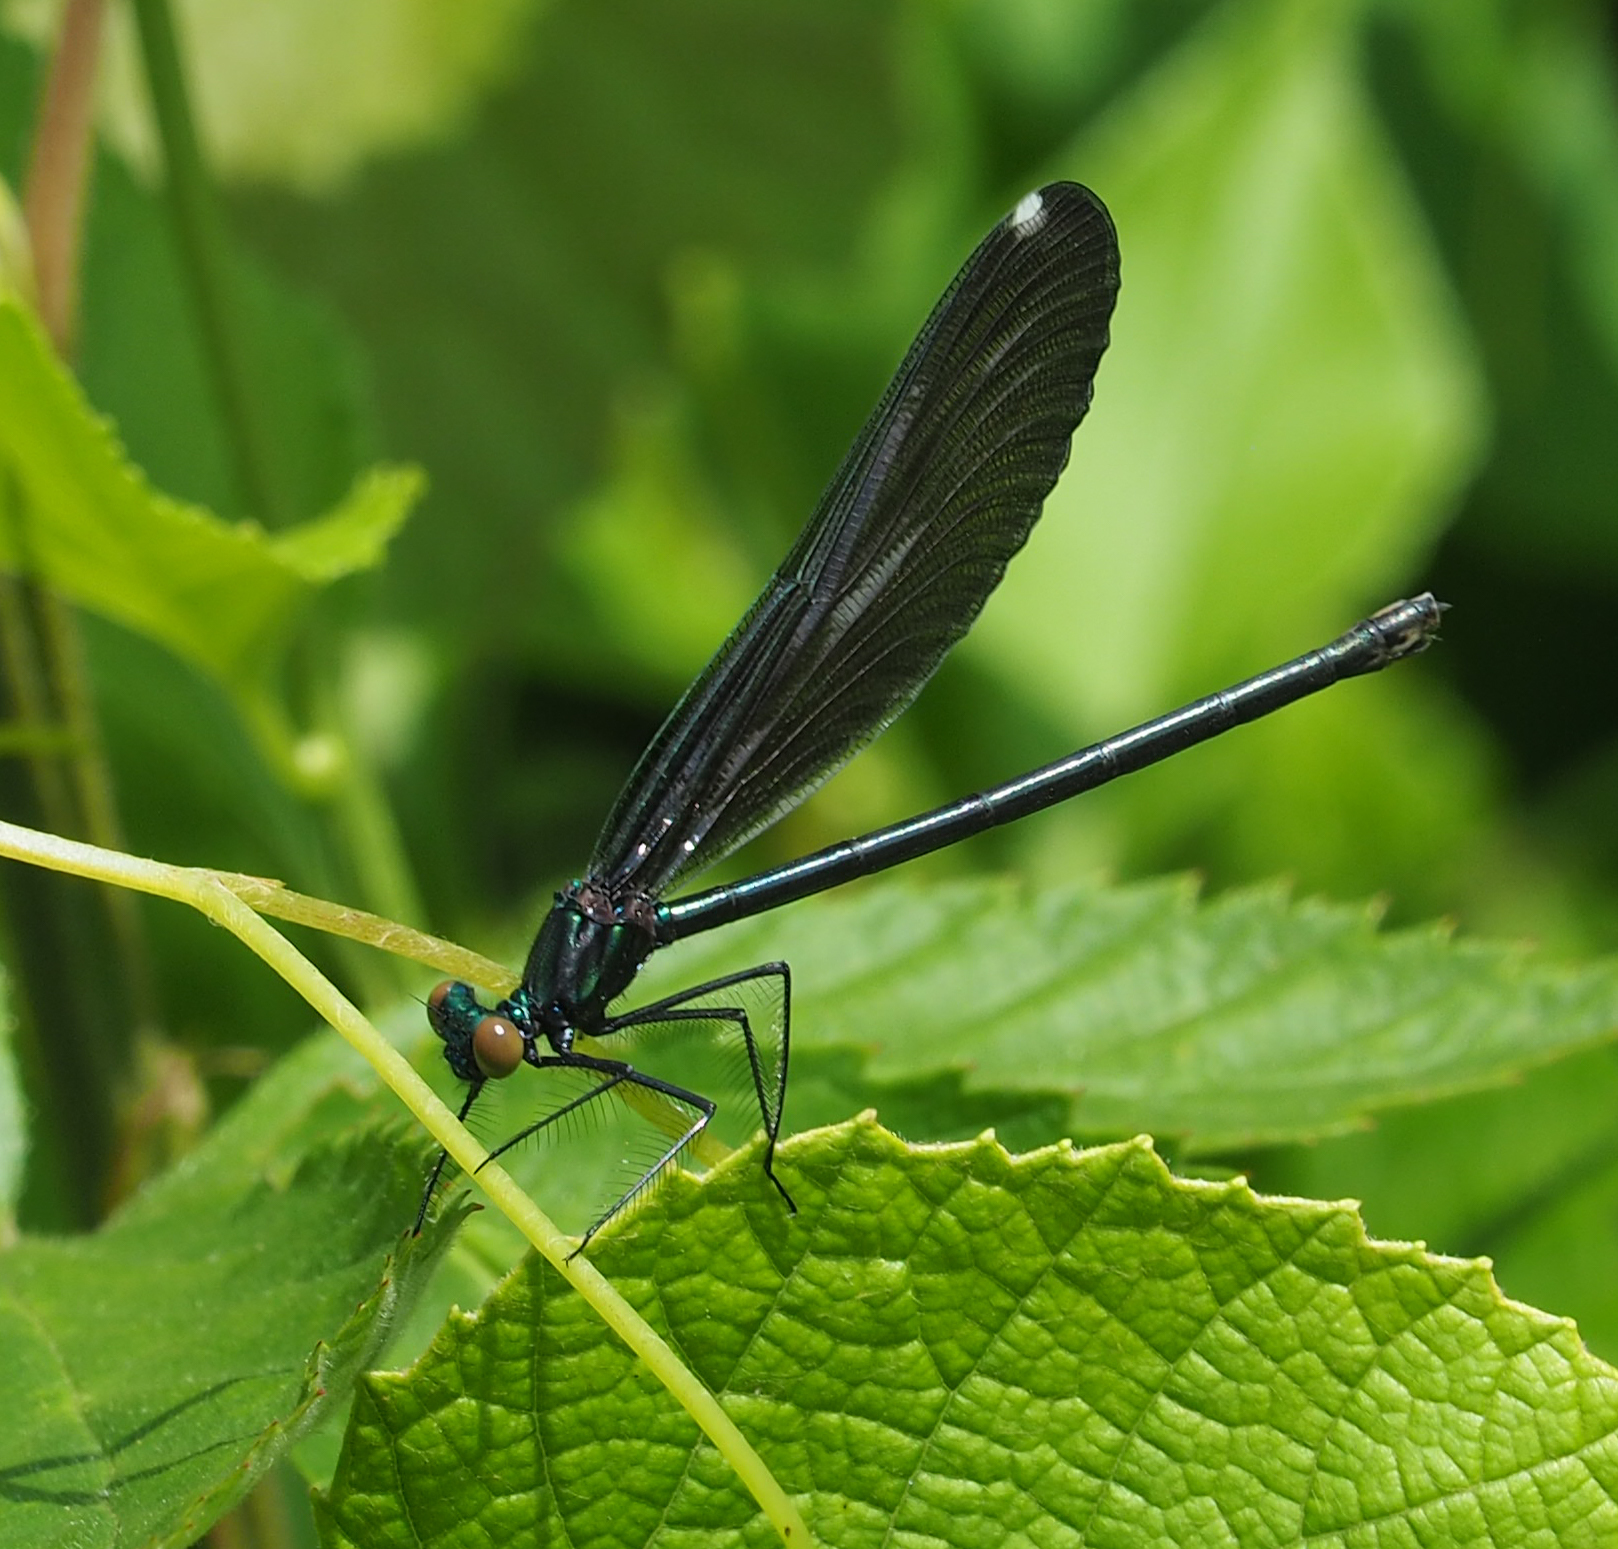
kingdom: Animalia
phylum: Arthropoda
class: Insecta
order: Odonata
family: Calopterygidae
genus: Calopteryx
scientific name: Calopteryx maculata
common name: Ebony jewelwing
